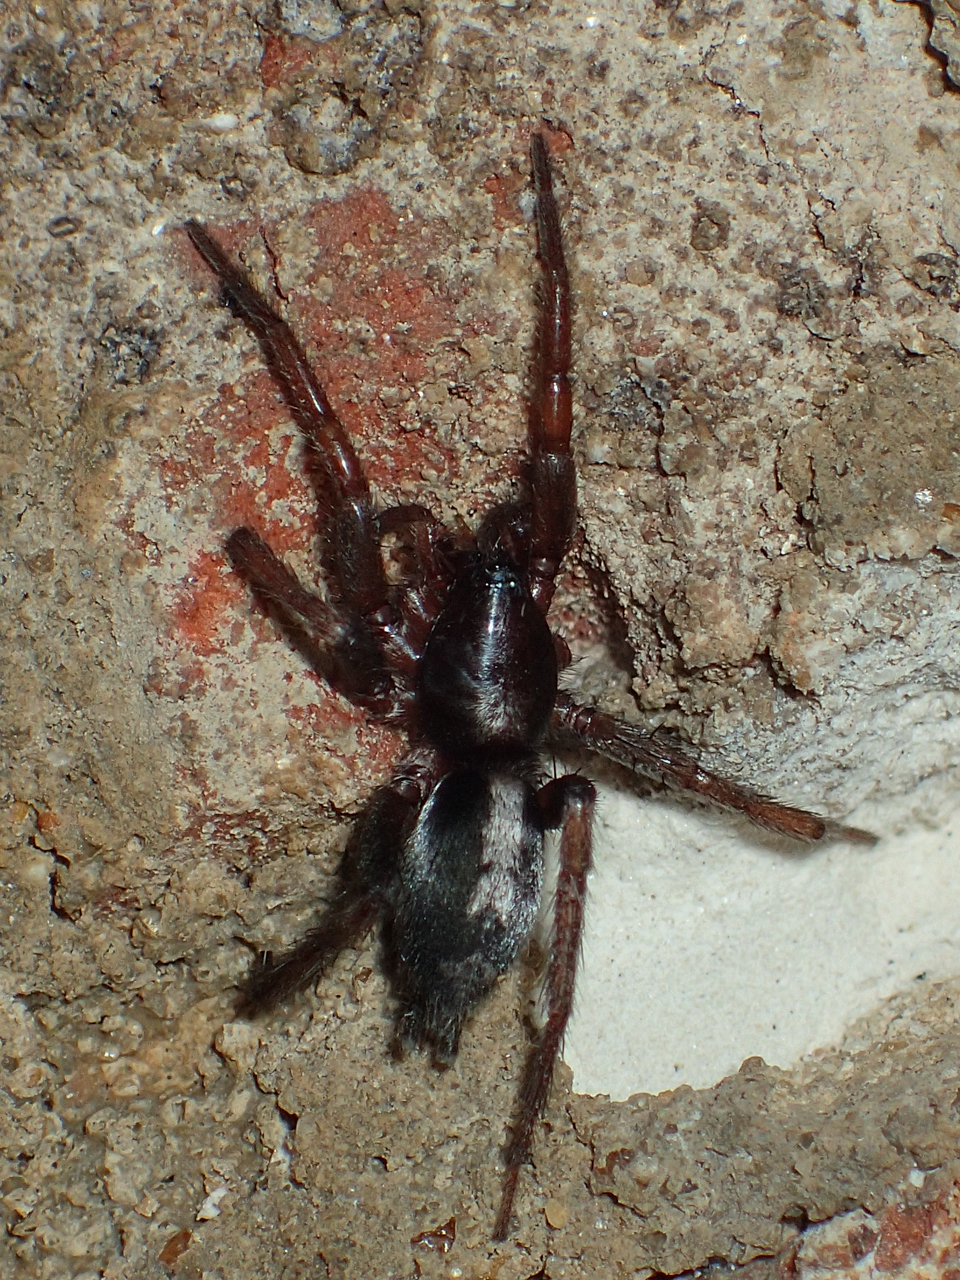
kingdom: Animalia
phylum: Arthropoda
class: Arachnida
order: Araneae
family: Gnaphosidae
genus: Herpyllus
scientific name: Herpyllus ecclesiasticus
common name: Eastern parson spider
